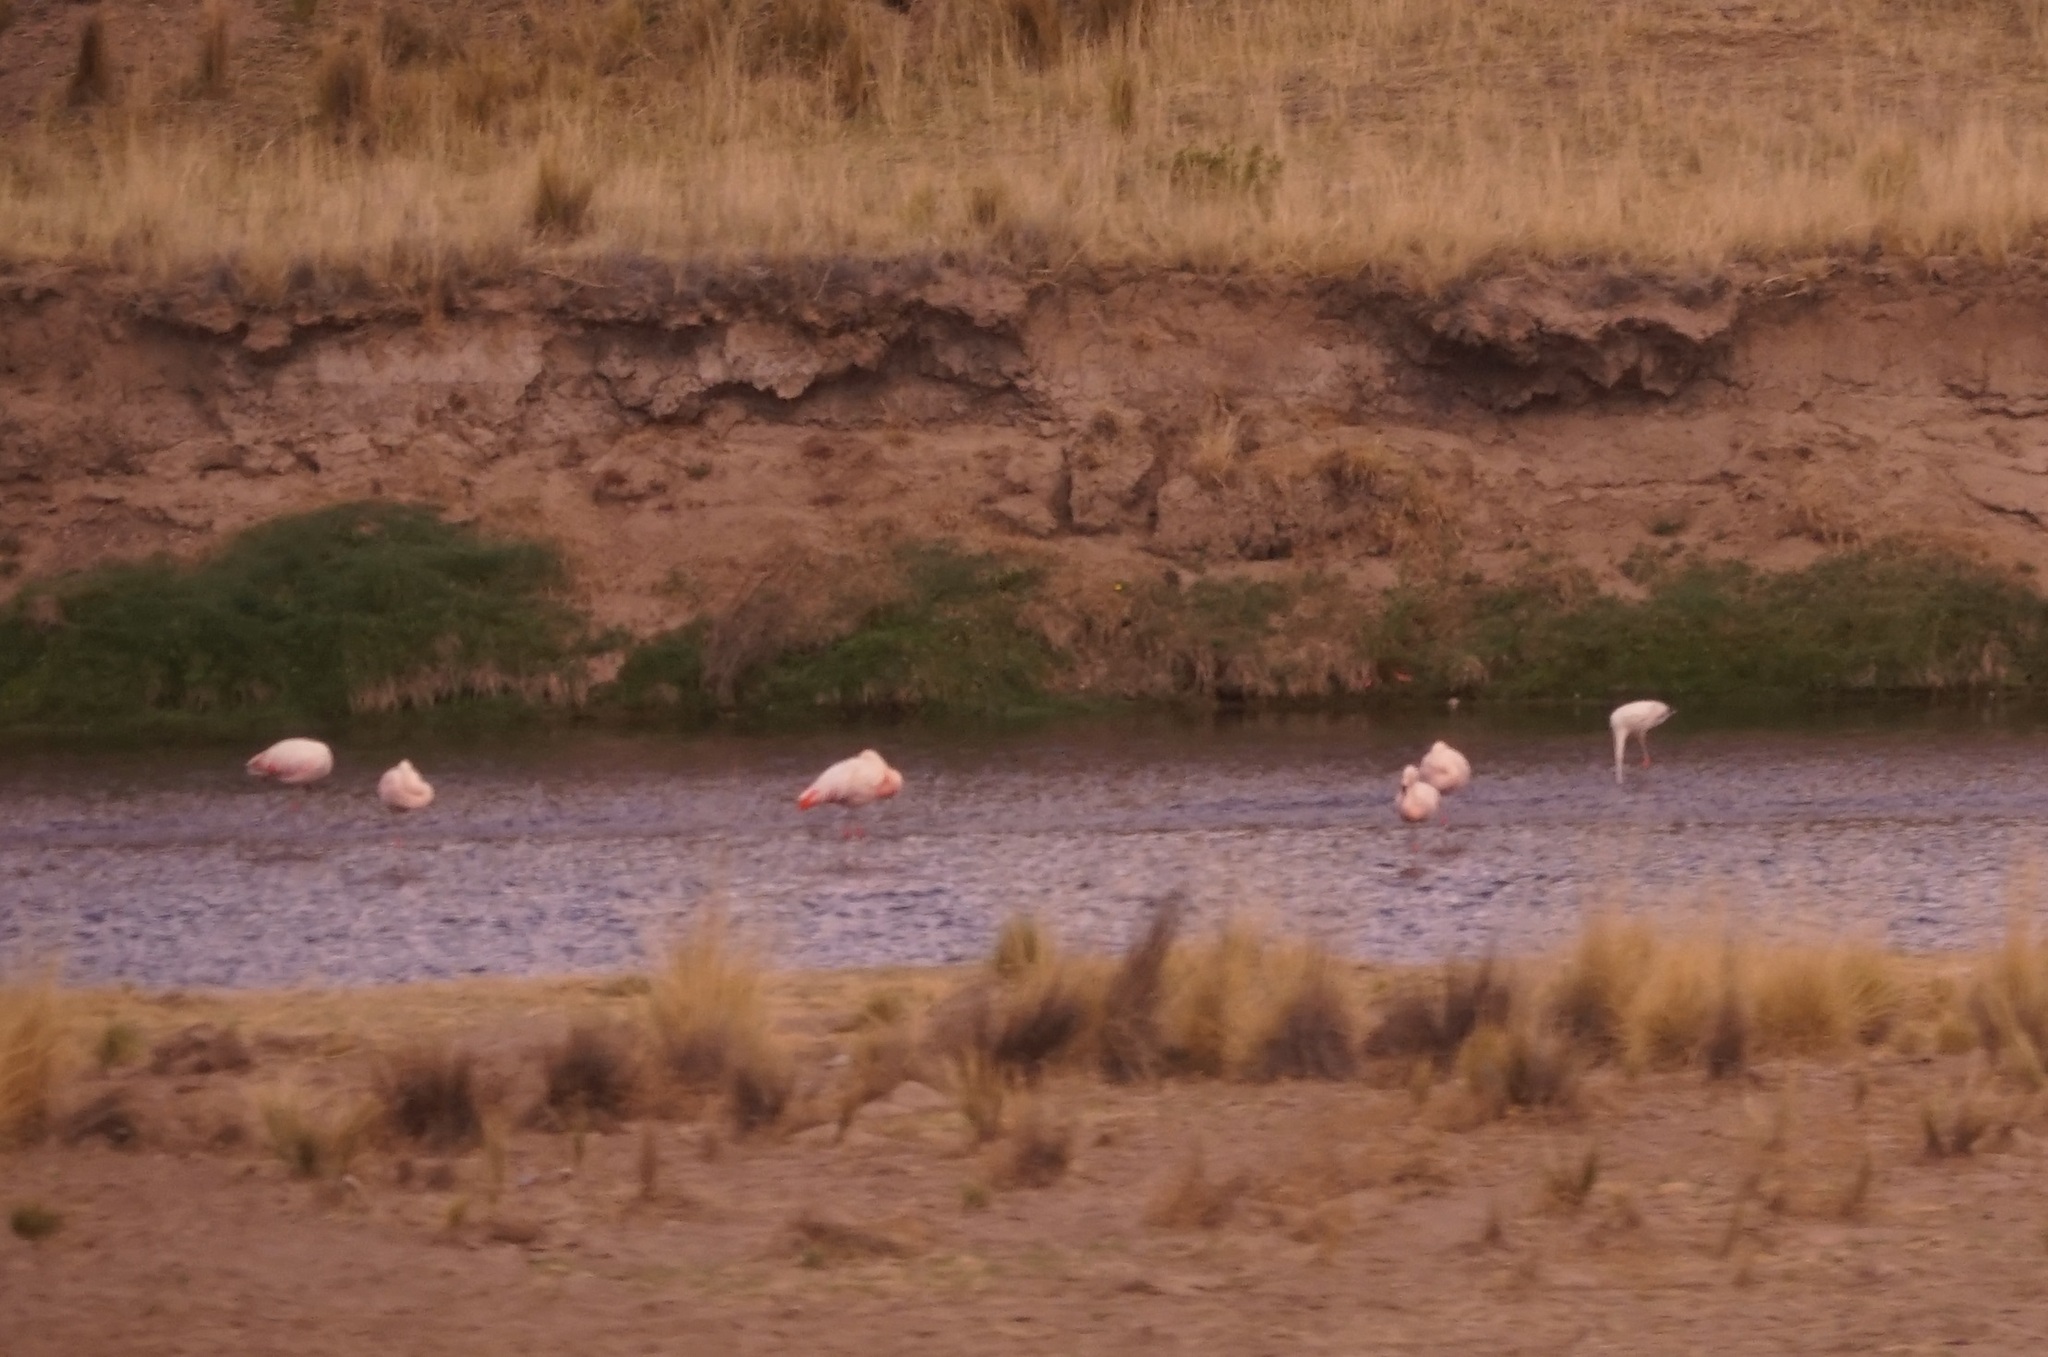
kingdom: Animalia
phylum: Chordata
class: Aves
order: Phoenicopteriformes
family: Phoenicopteridae
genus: Phoenicopterus
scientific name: Phoenicopterus chilensis
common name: Chilean flamingo
